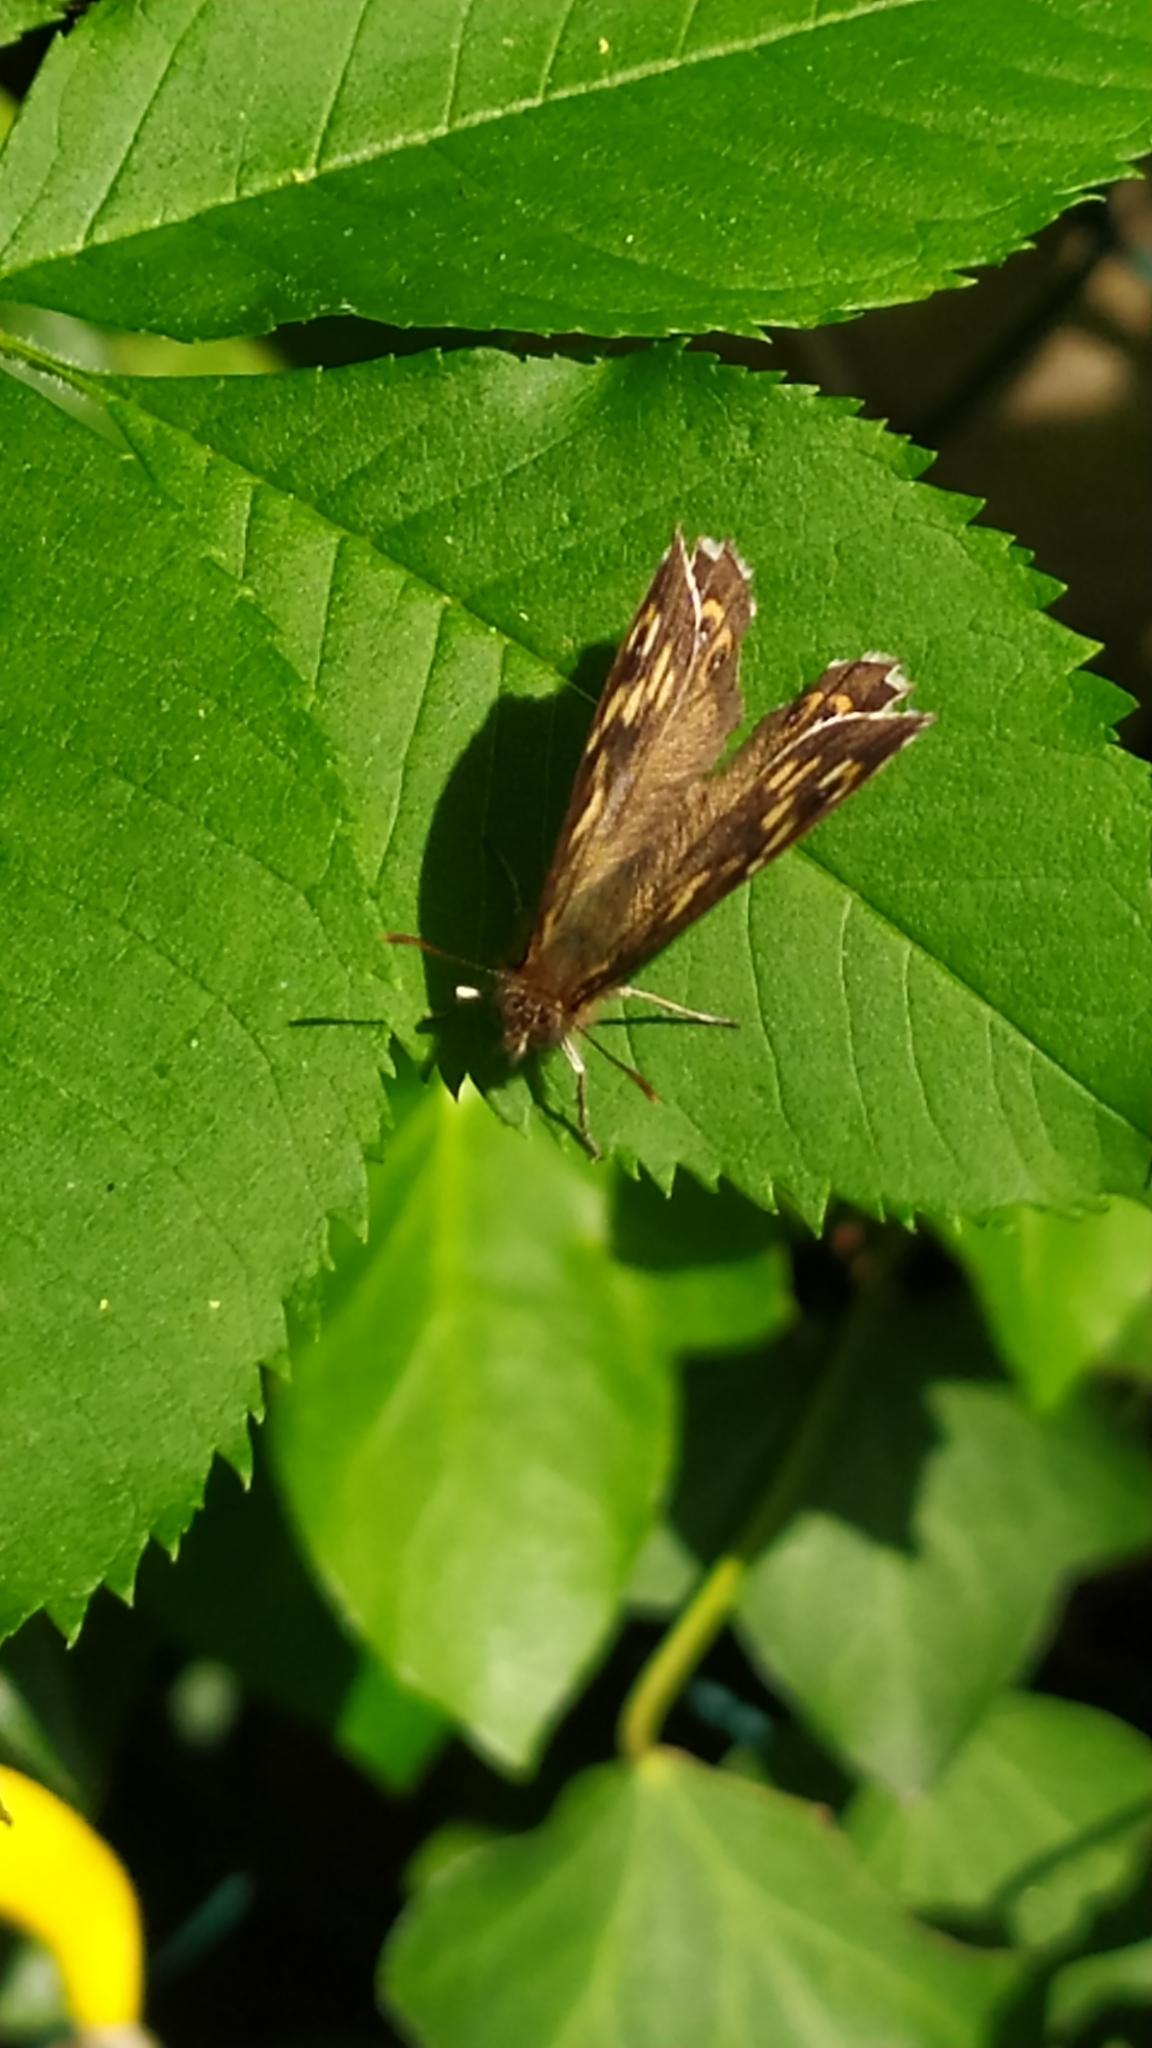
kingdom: Animalia
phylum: Arthropoda
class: Insecta
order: Lepidoptera
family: Nymphalidae
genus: Pararge
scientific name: Pararge aegeria
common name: Speckled wood
